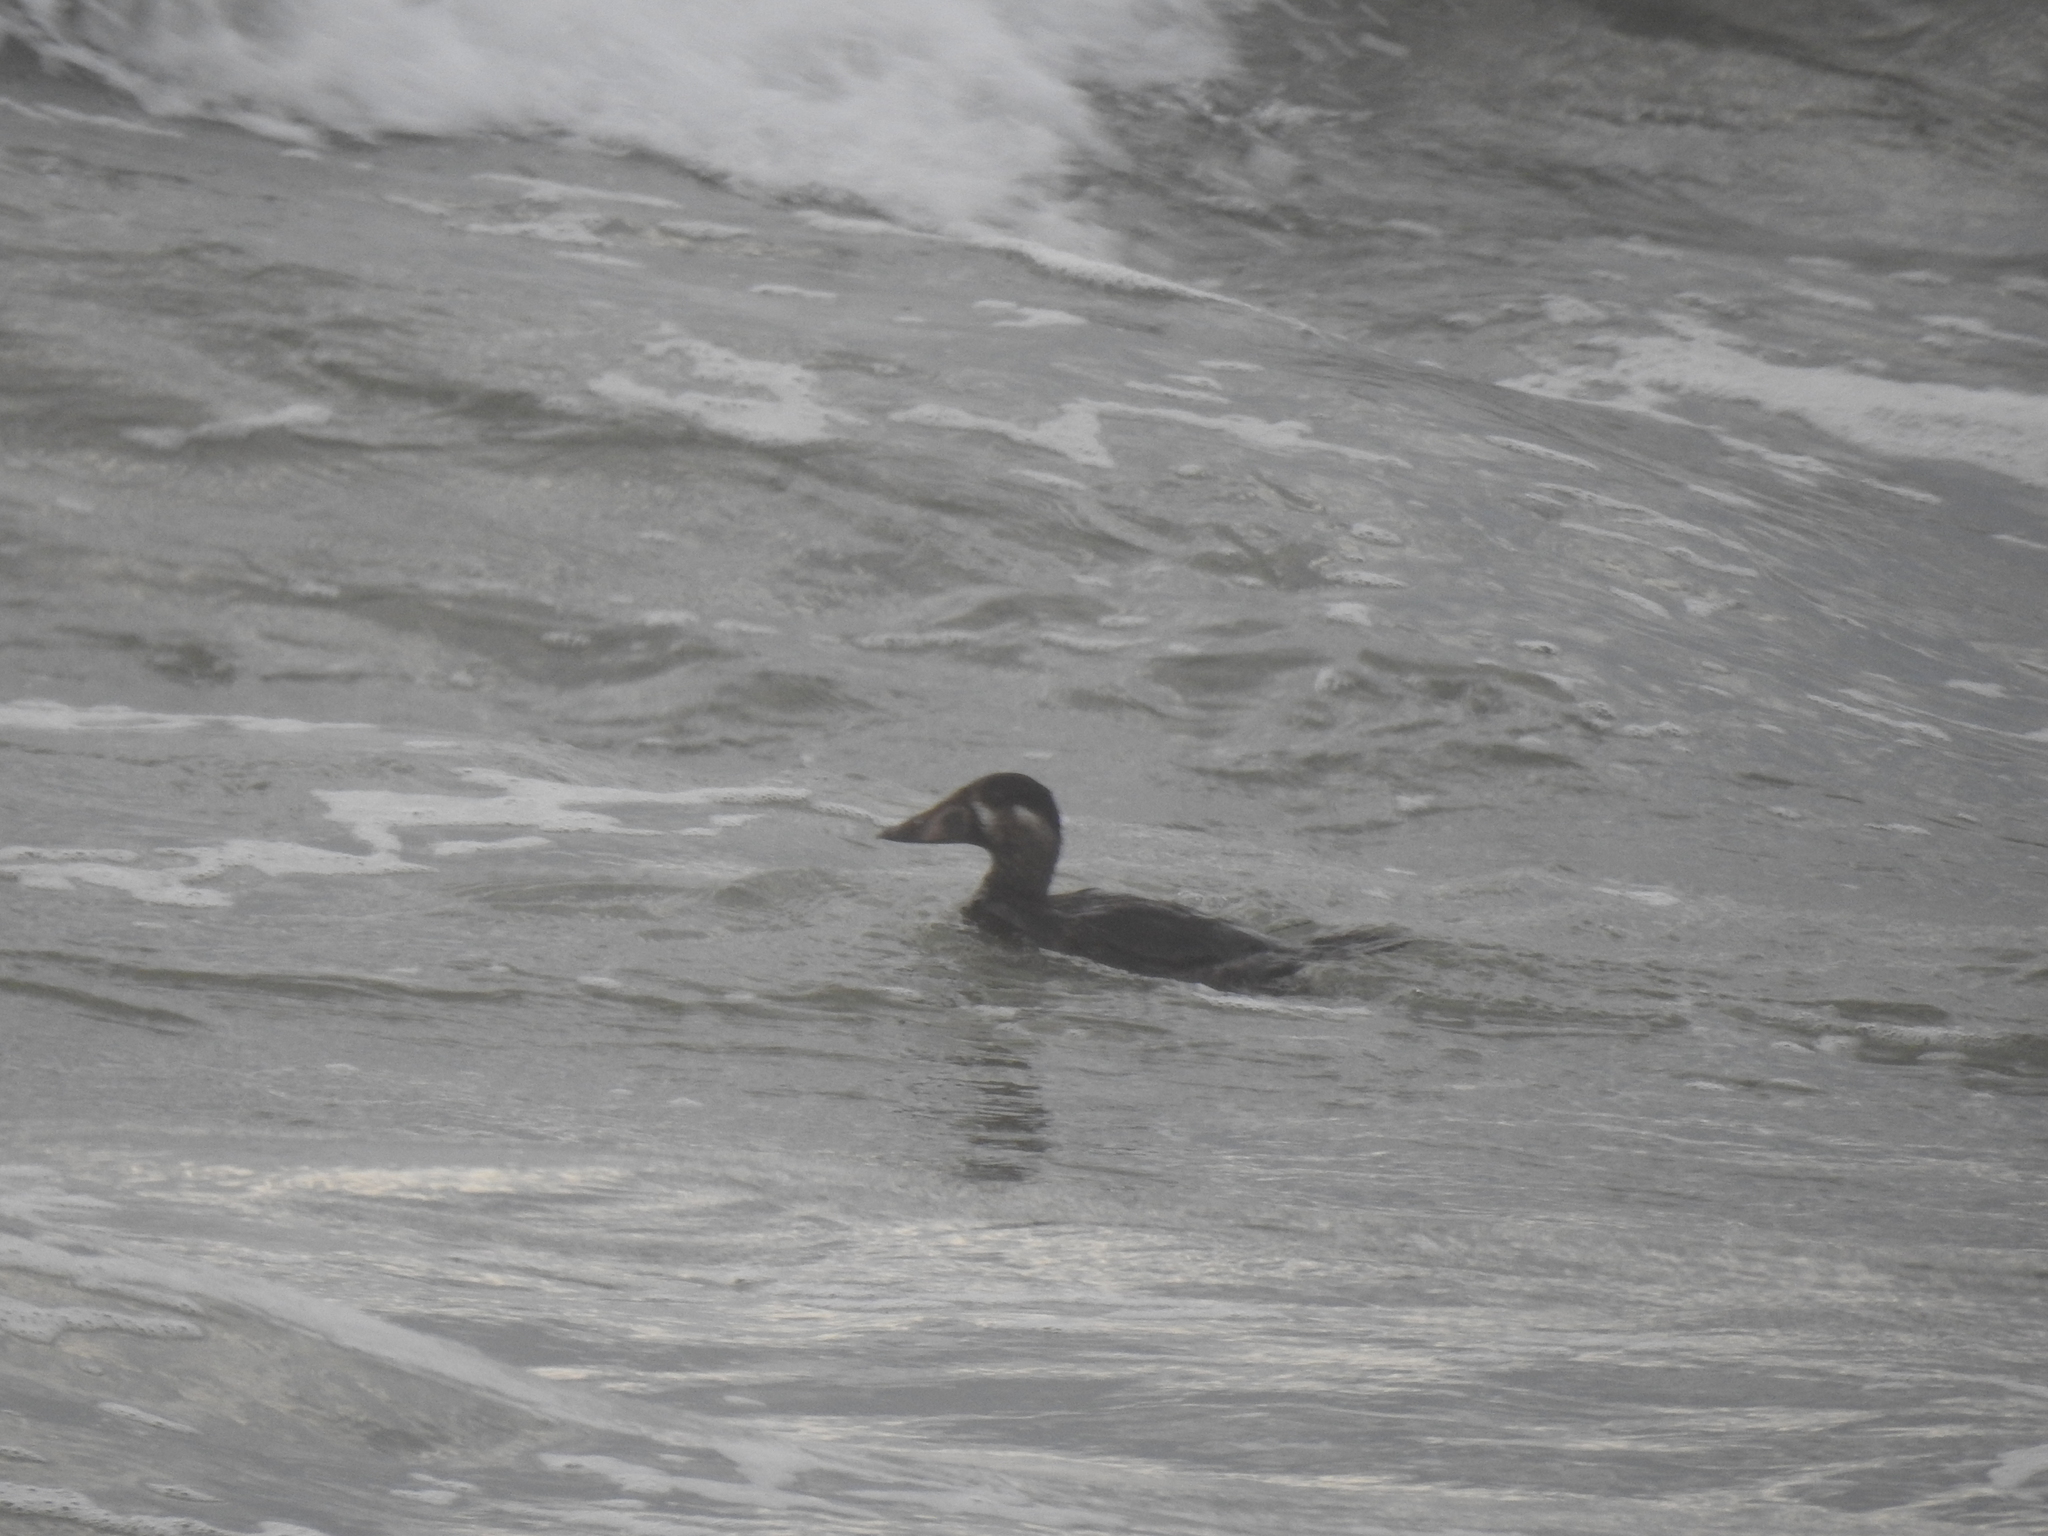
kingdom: Animalia
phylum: Chordata
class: Aves
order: Anseriformes
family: Anatidae
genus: Melanitta
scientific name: Melanitta perspicillata
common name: Surf scoter
